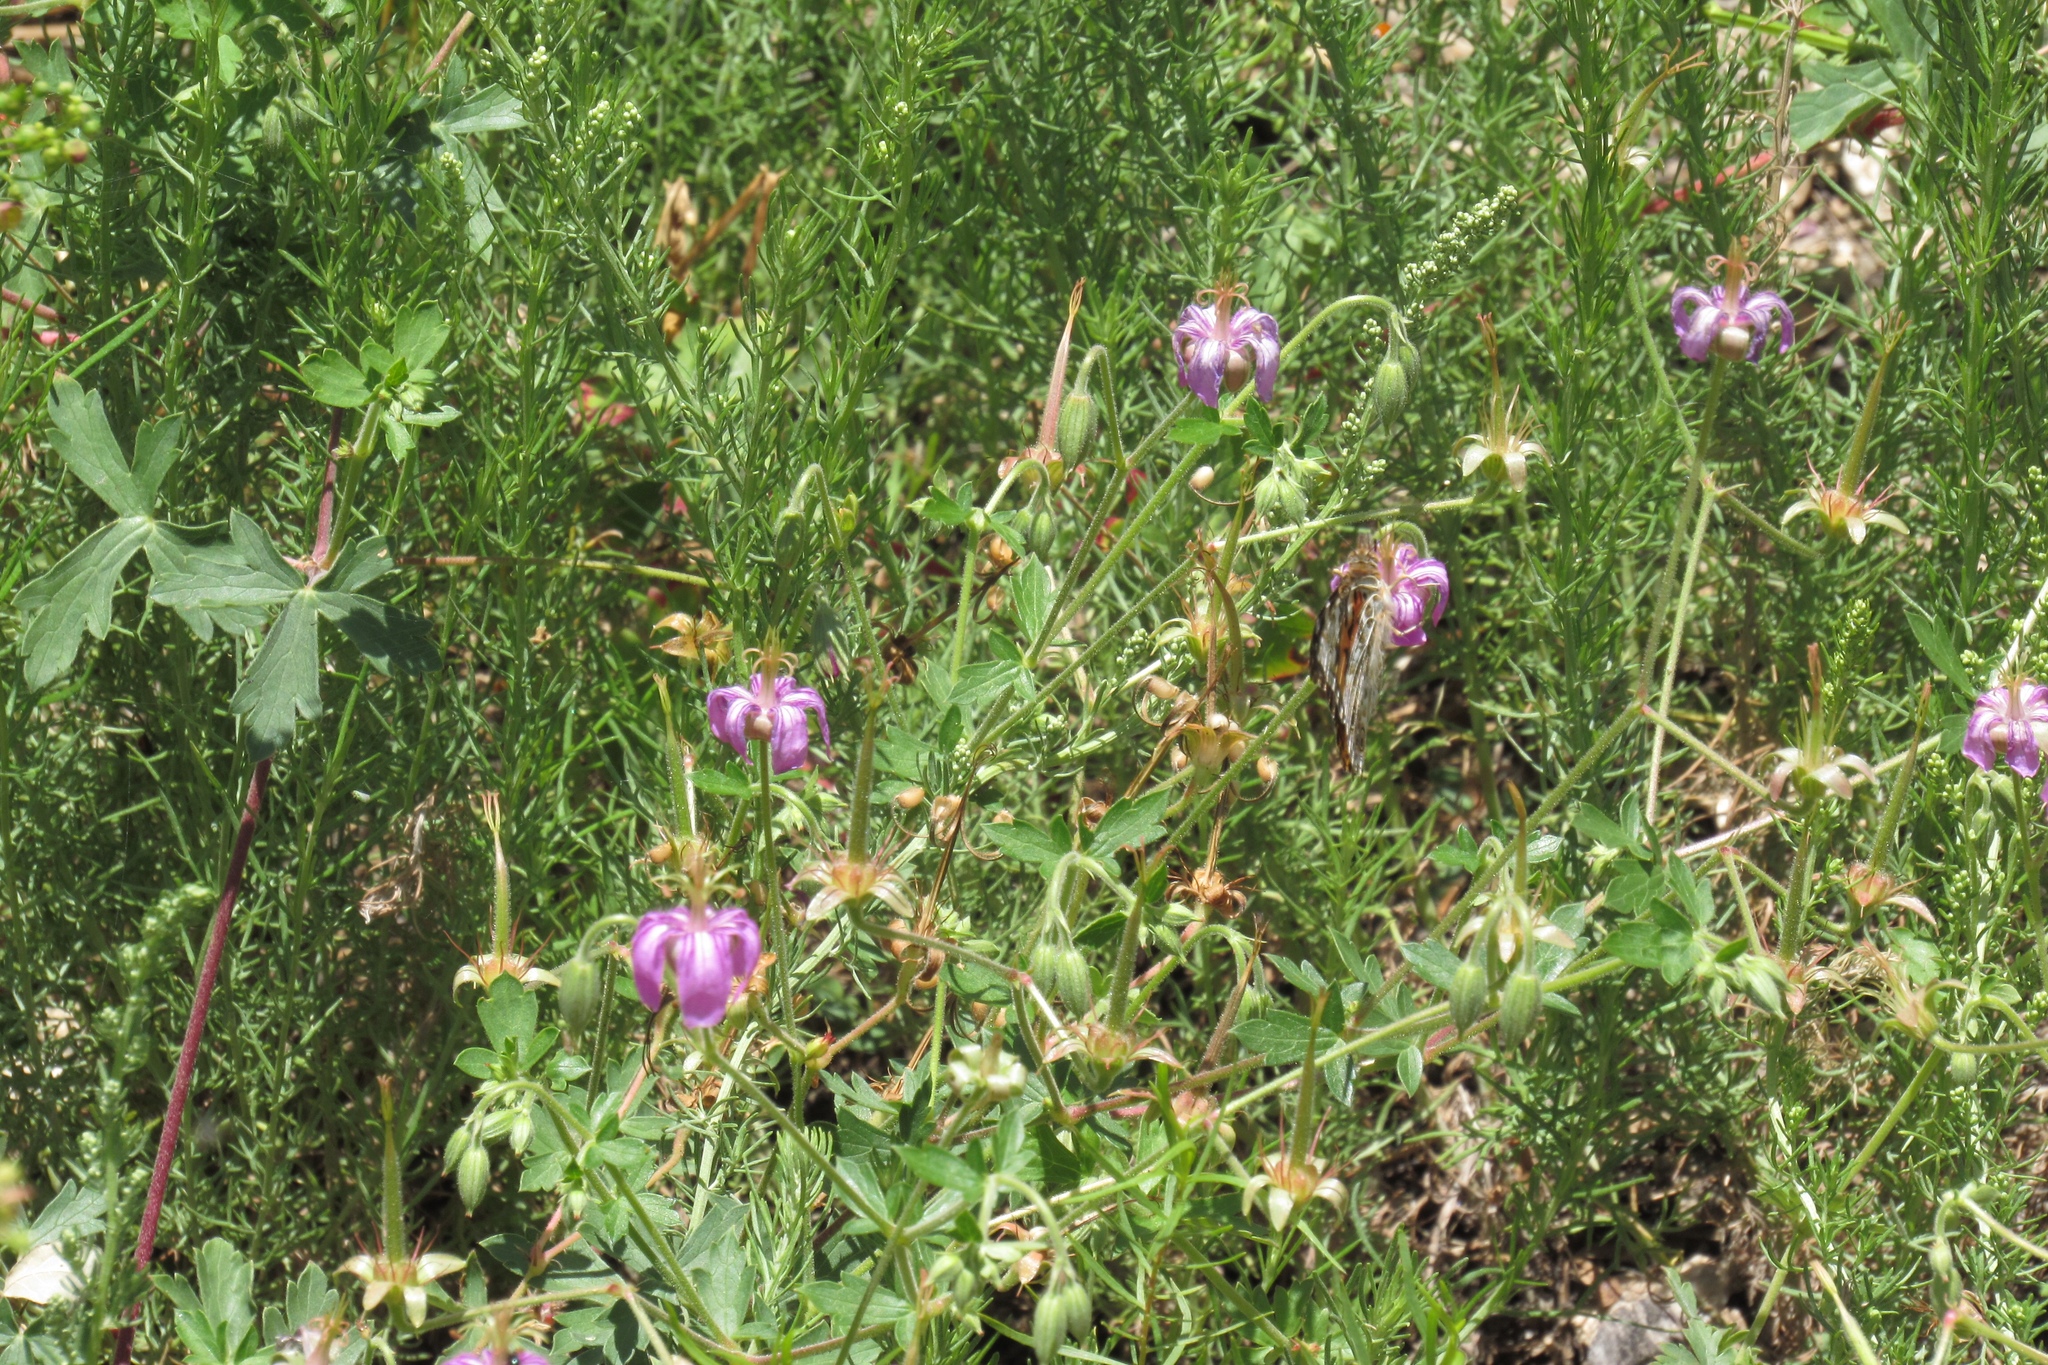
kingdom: Animalia
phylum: Arthropoda
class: Insecta
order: Lepidoptera
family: Nymphalidae
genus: Vanessa
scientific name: Vanessa cardui
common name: Painted lady
